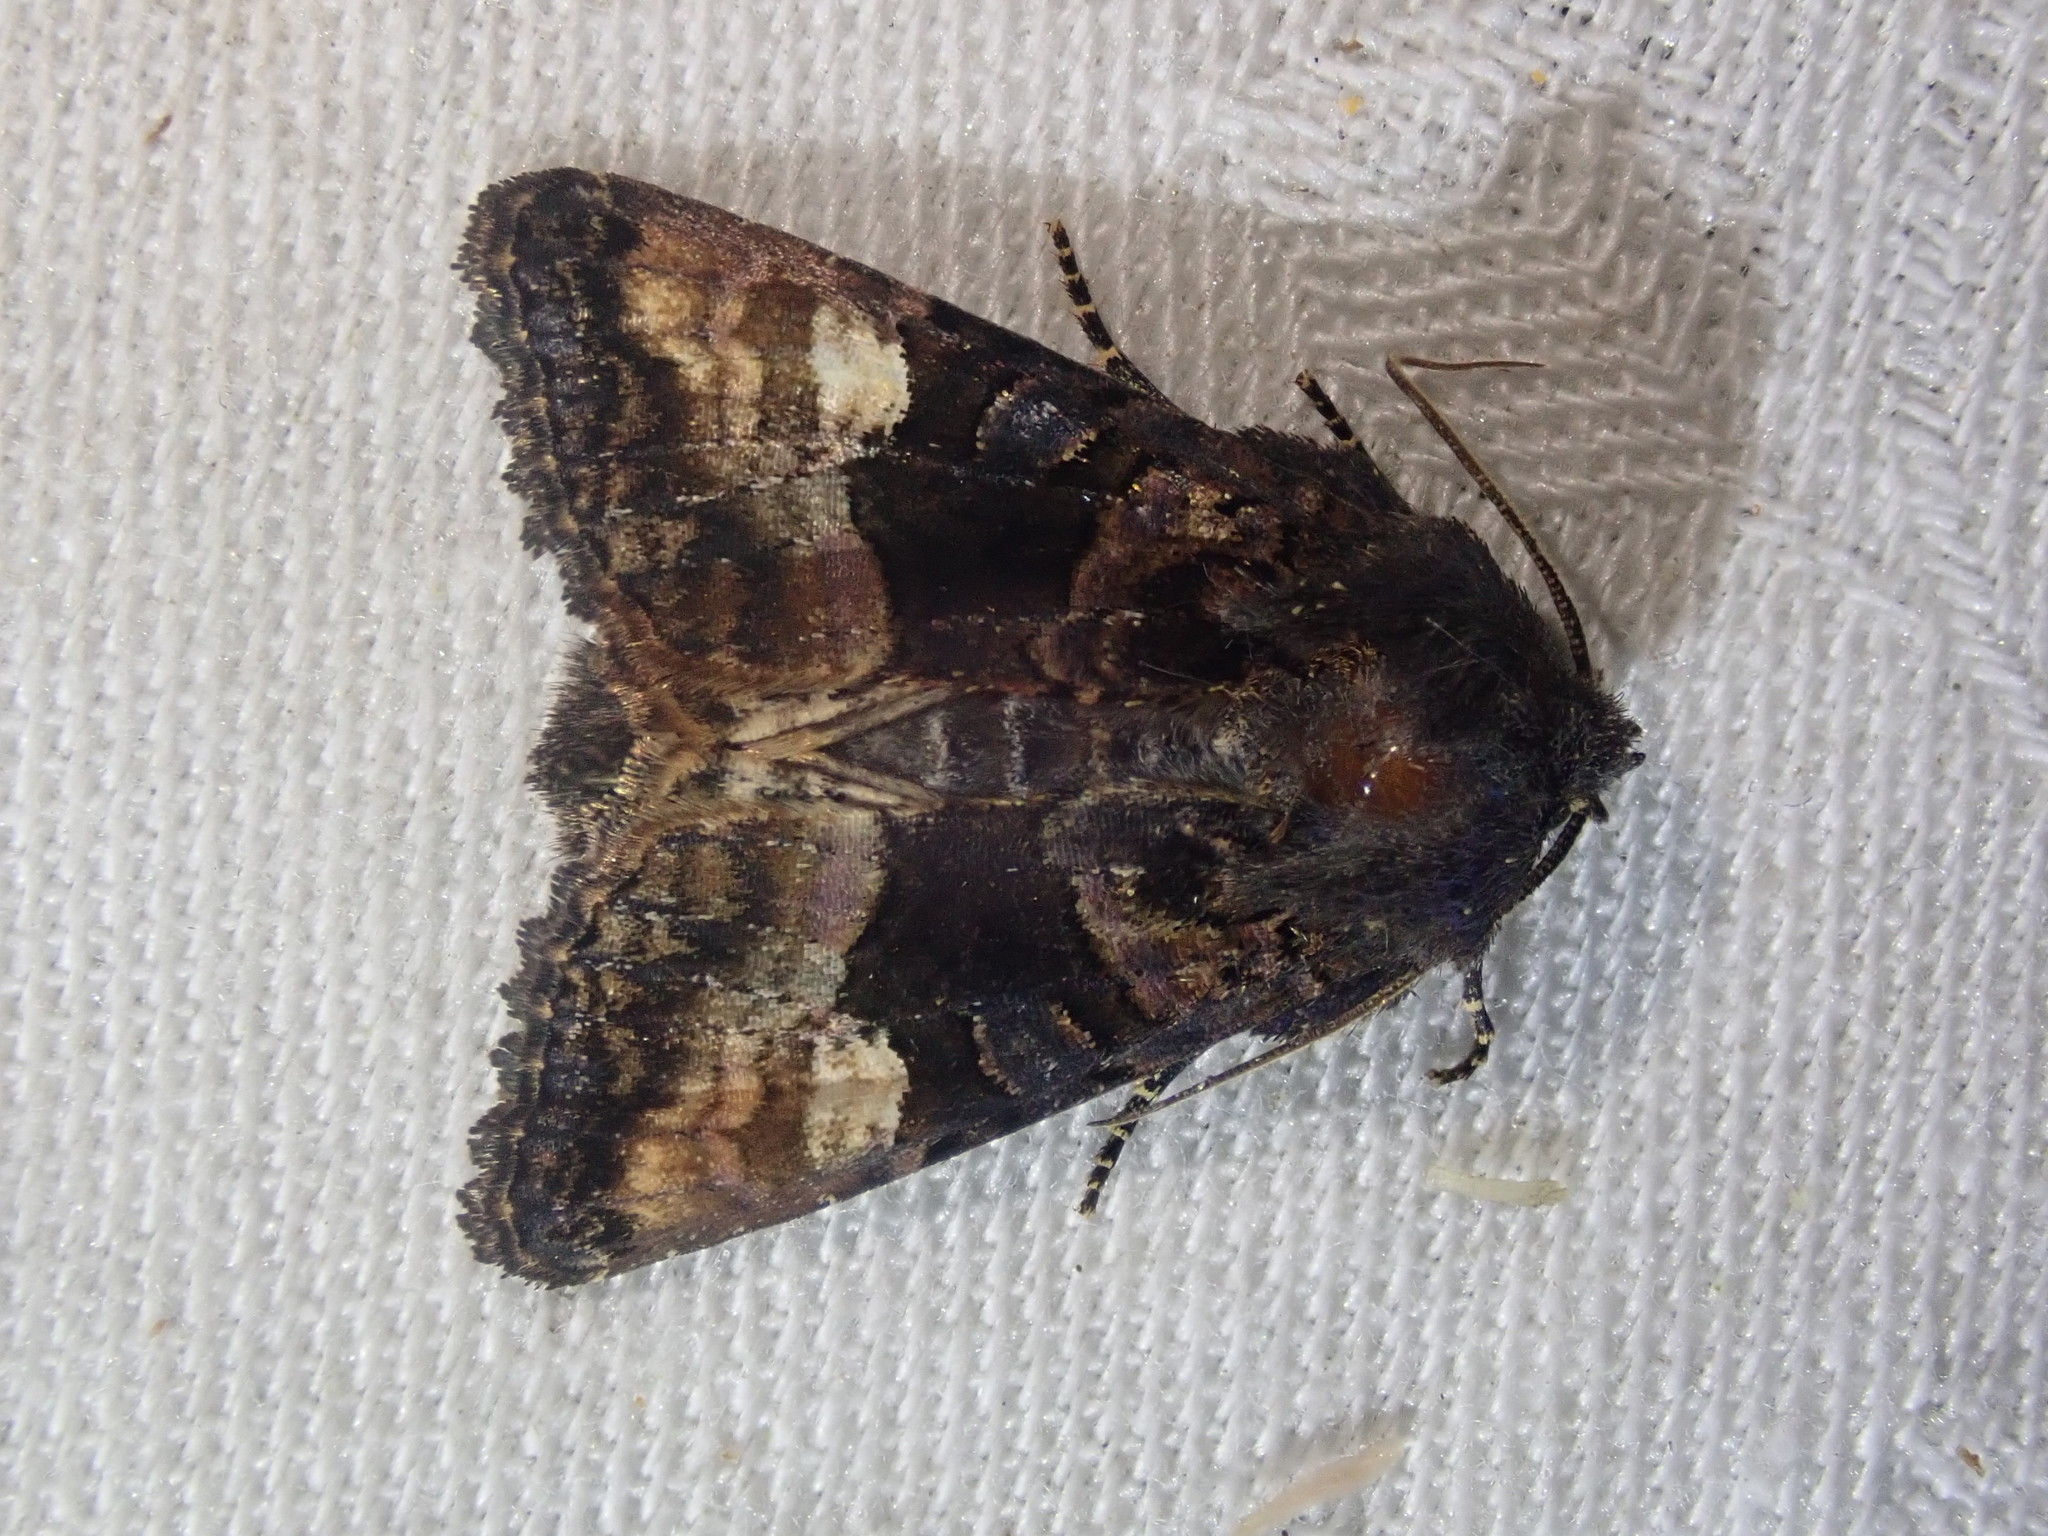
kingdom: Animalia
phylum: Arthropoda
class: Insecta
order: Lepidoptera
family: Noctuidae
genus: Euplexia
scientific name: Euplexia lucipara
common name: Small angle shades
